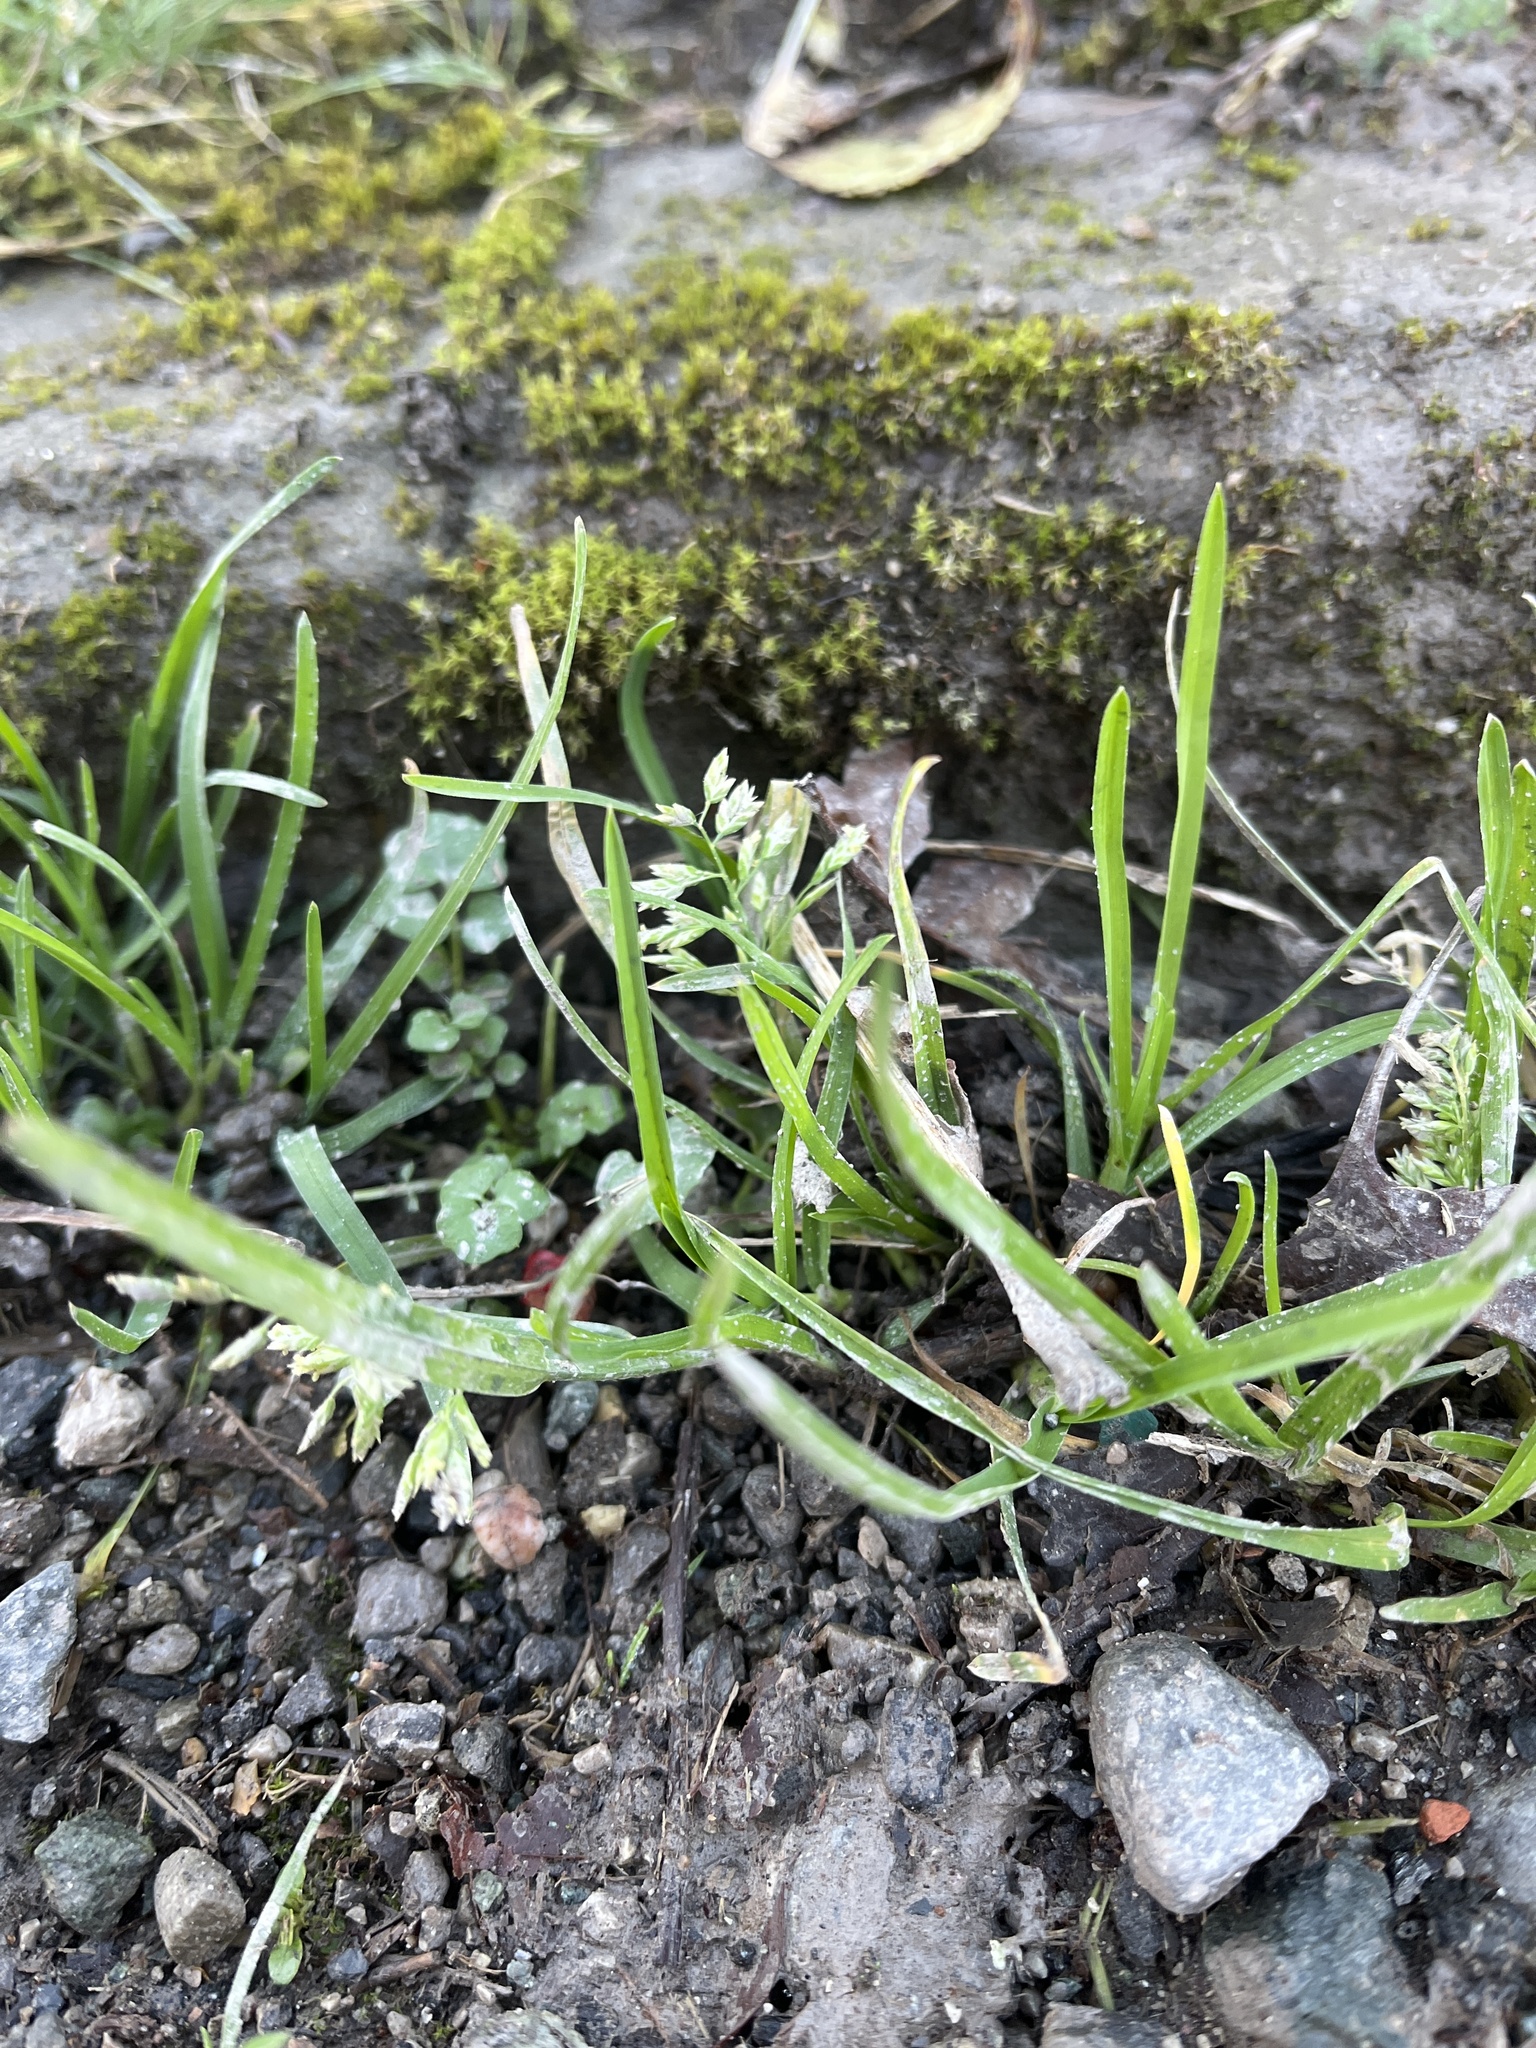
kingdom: Plantae
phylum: Tracheophyta
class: Liliopsida
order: Poales
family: Poaceae
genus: Poa
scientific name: Poa annua
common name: Annual bluegrass
